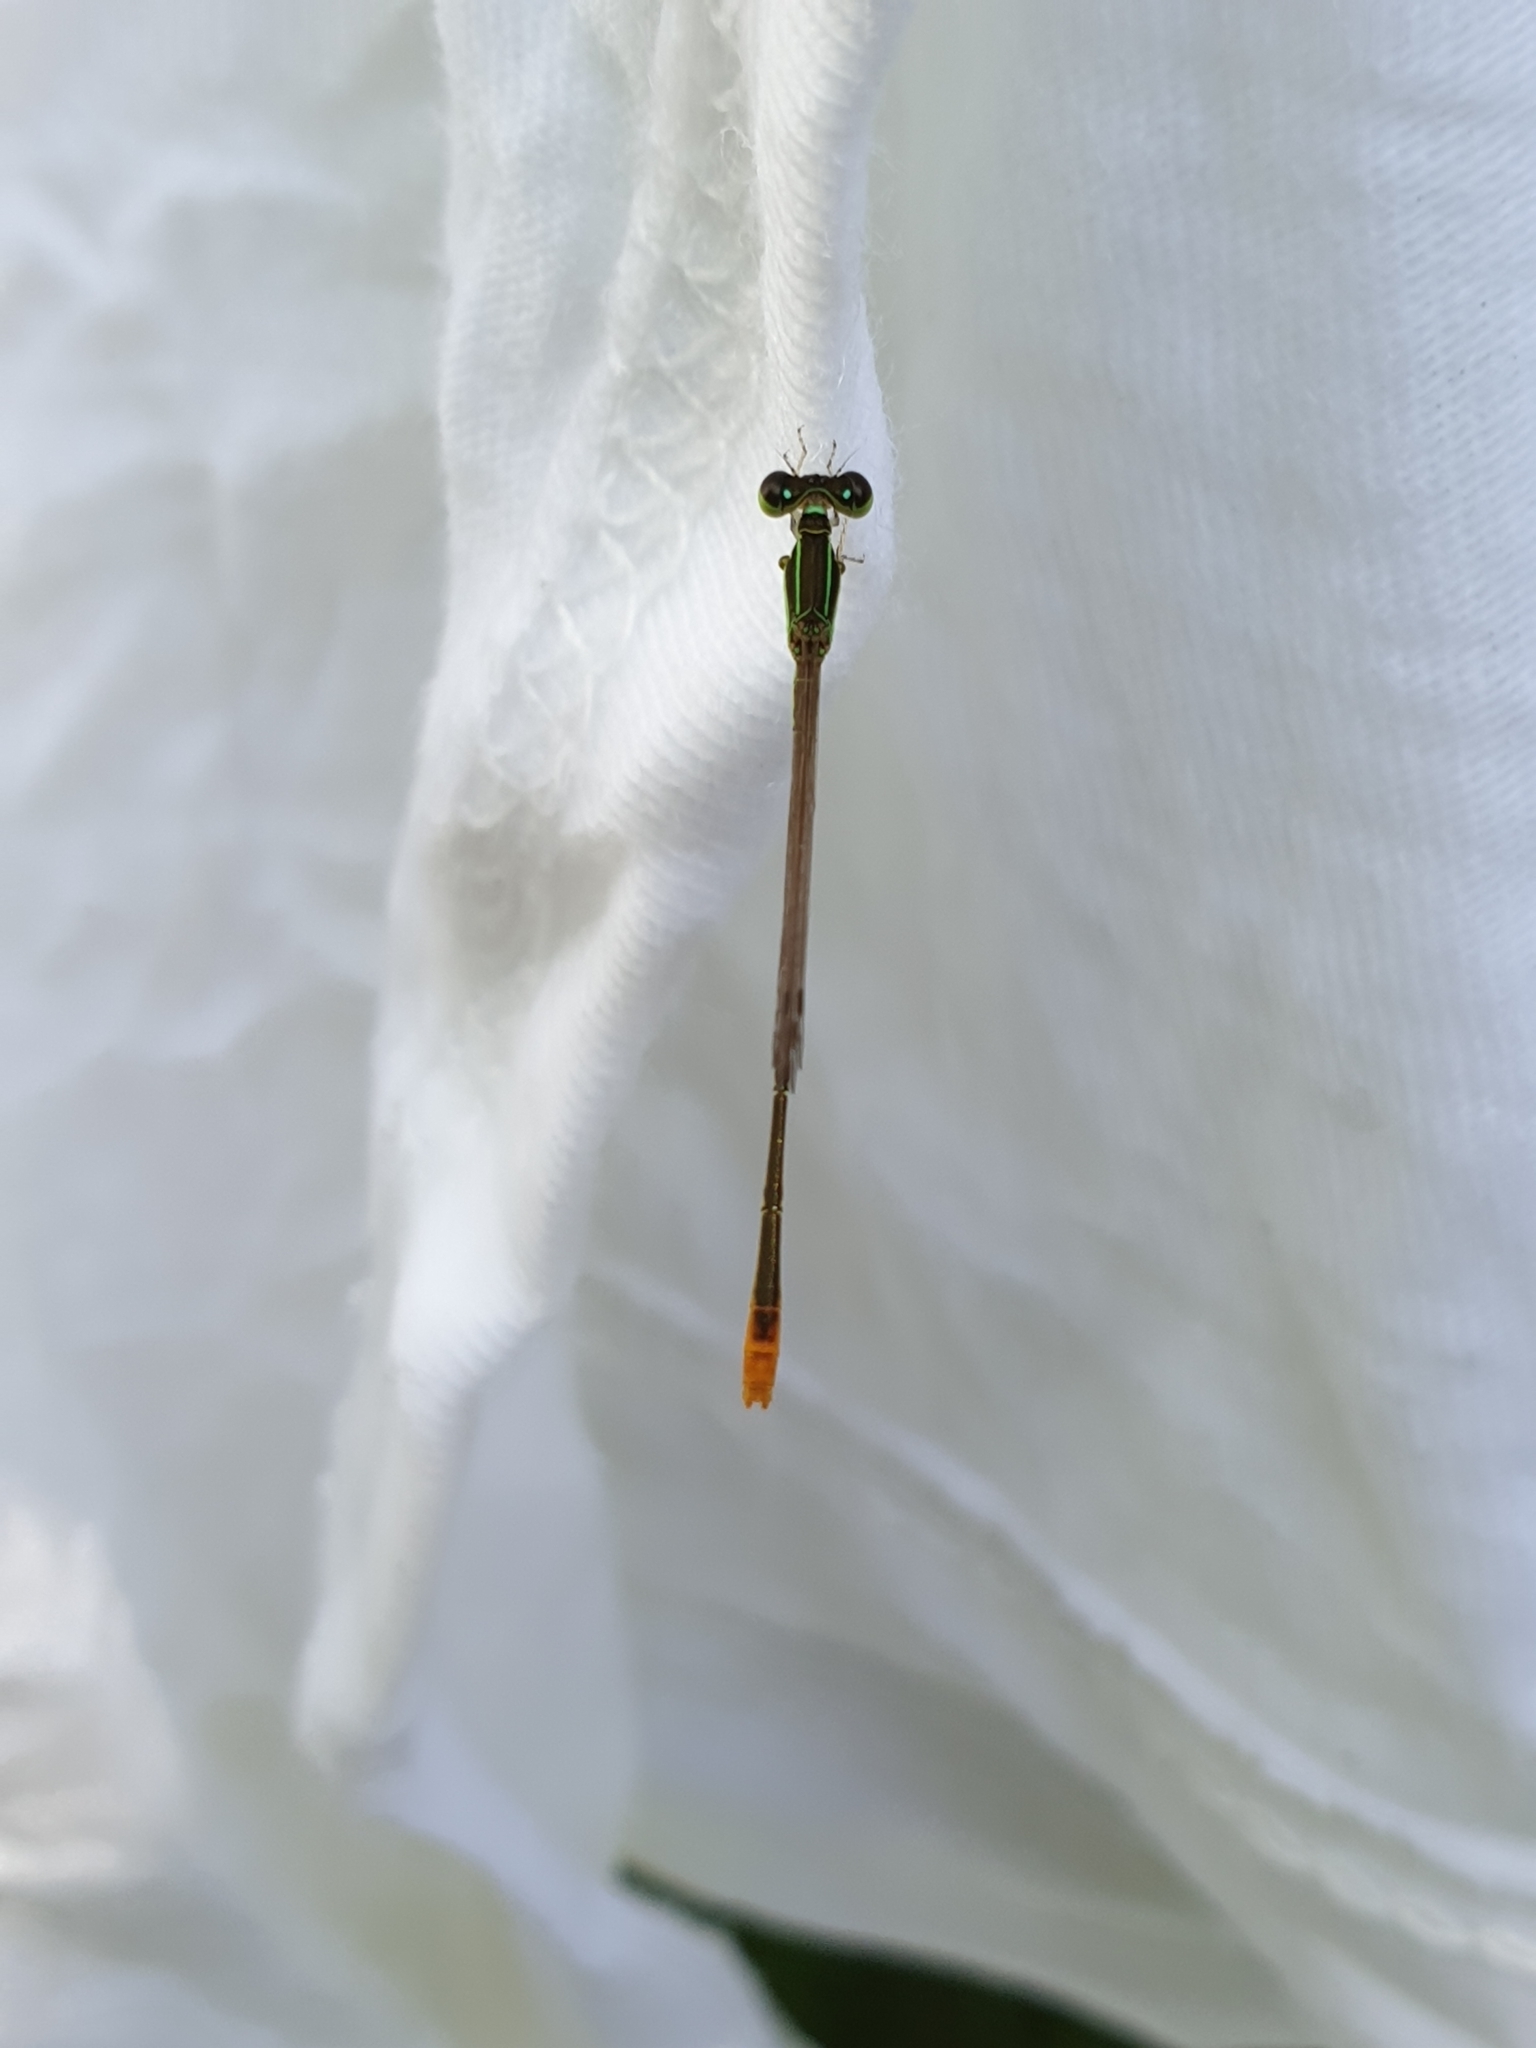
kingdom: Animalia
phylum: Arthropoda
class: Insecta
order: Odonata
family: Coenagrionidae
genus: Agriocnemis
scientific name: Agriocnemis pygmaea
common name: Pygmy wisp
